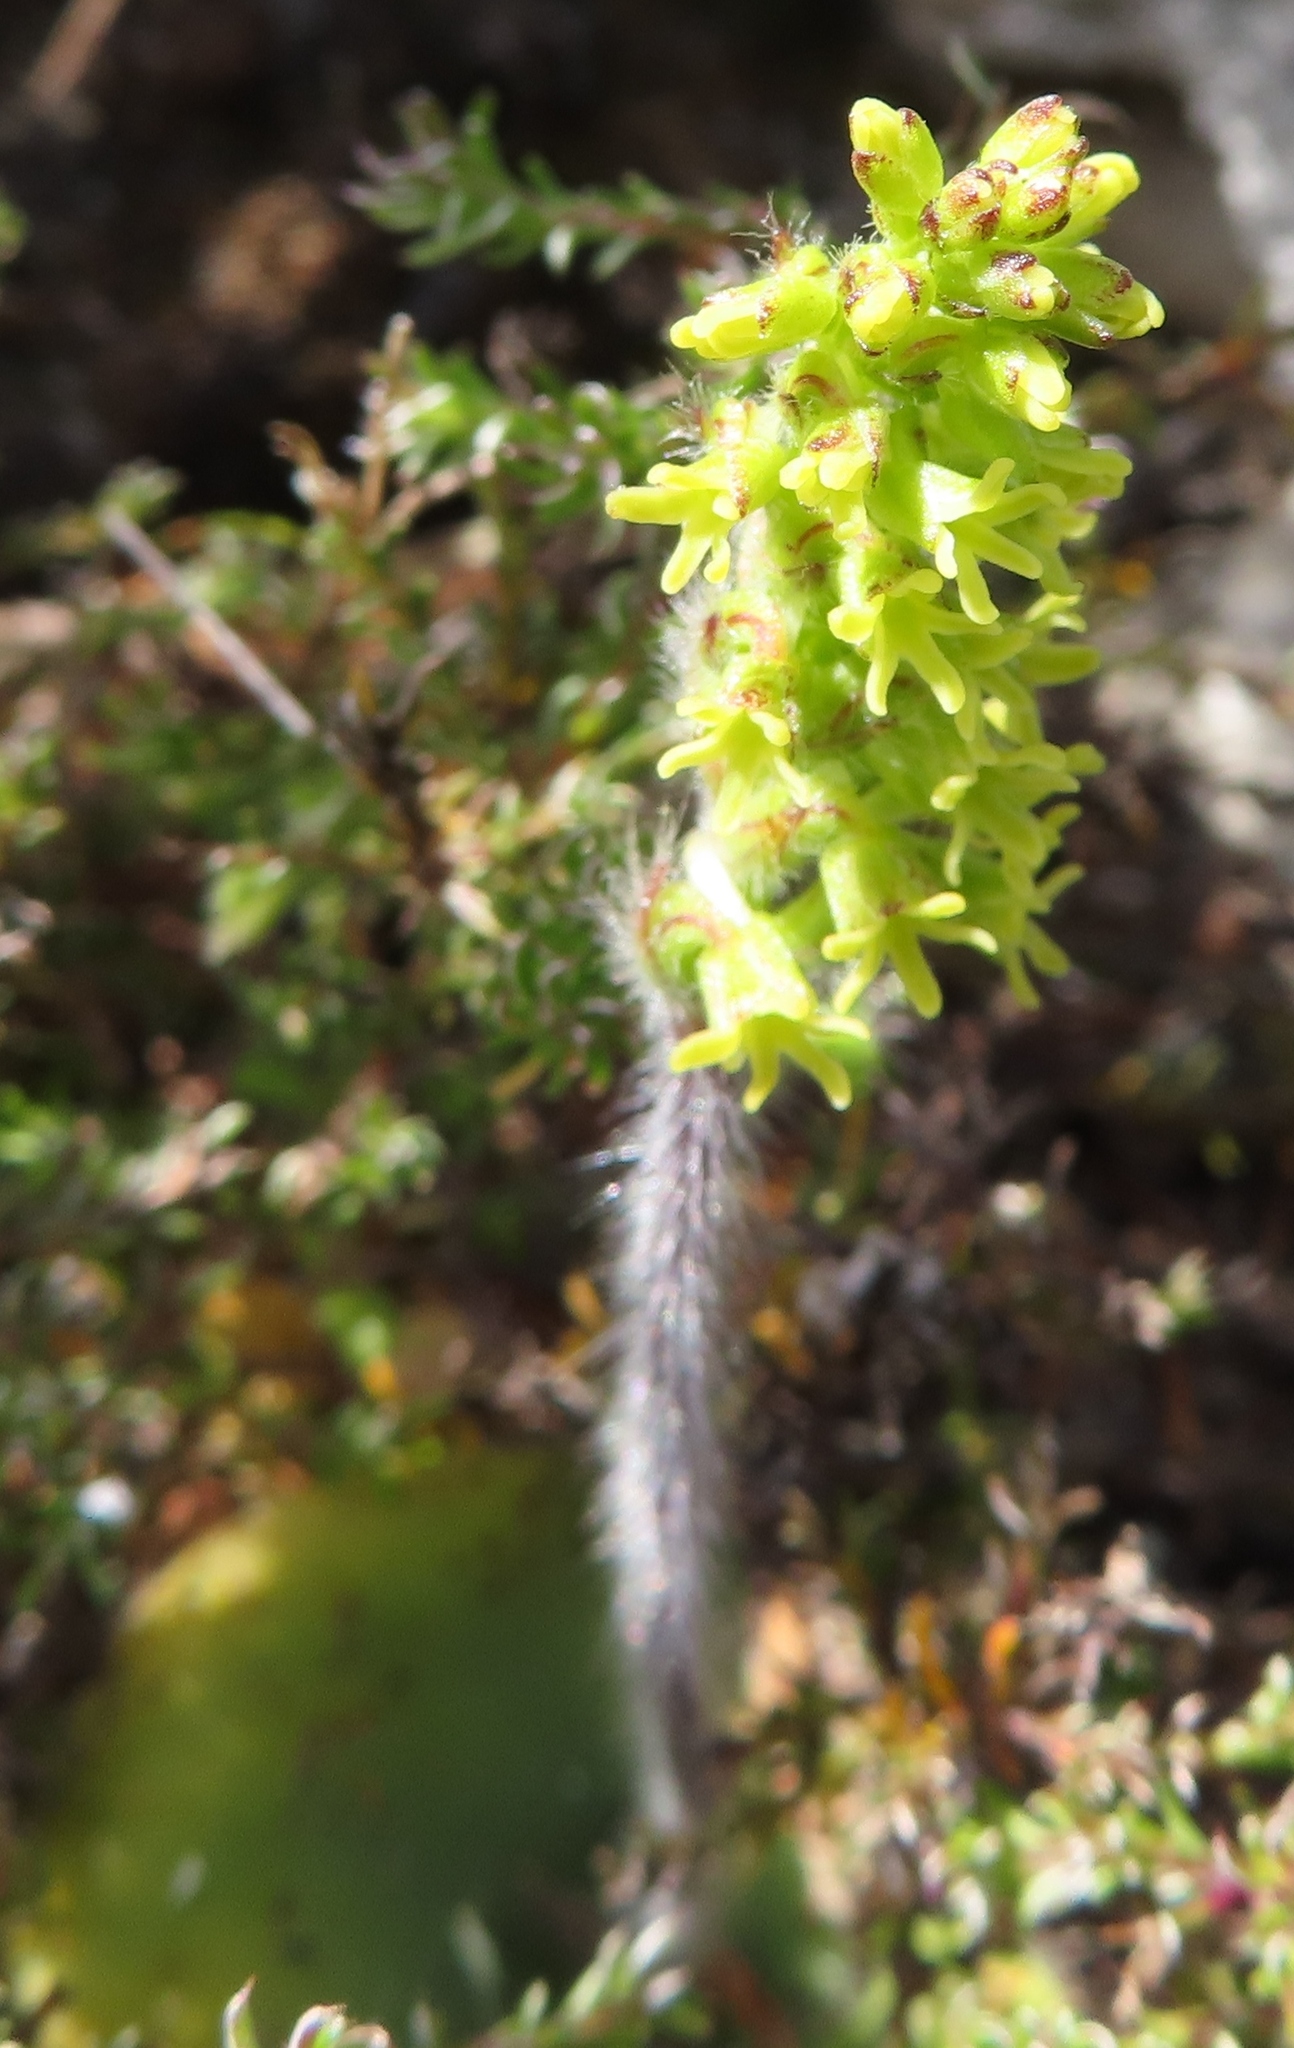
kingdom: Plantae
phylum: Tracheophyta
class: Liliopsida
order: Asparagales
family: Orchidaceae
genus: Holothrix
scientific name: Holothrix condensata
